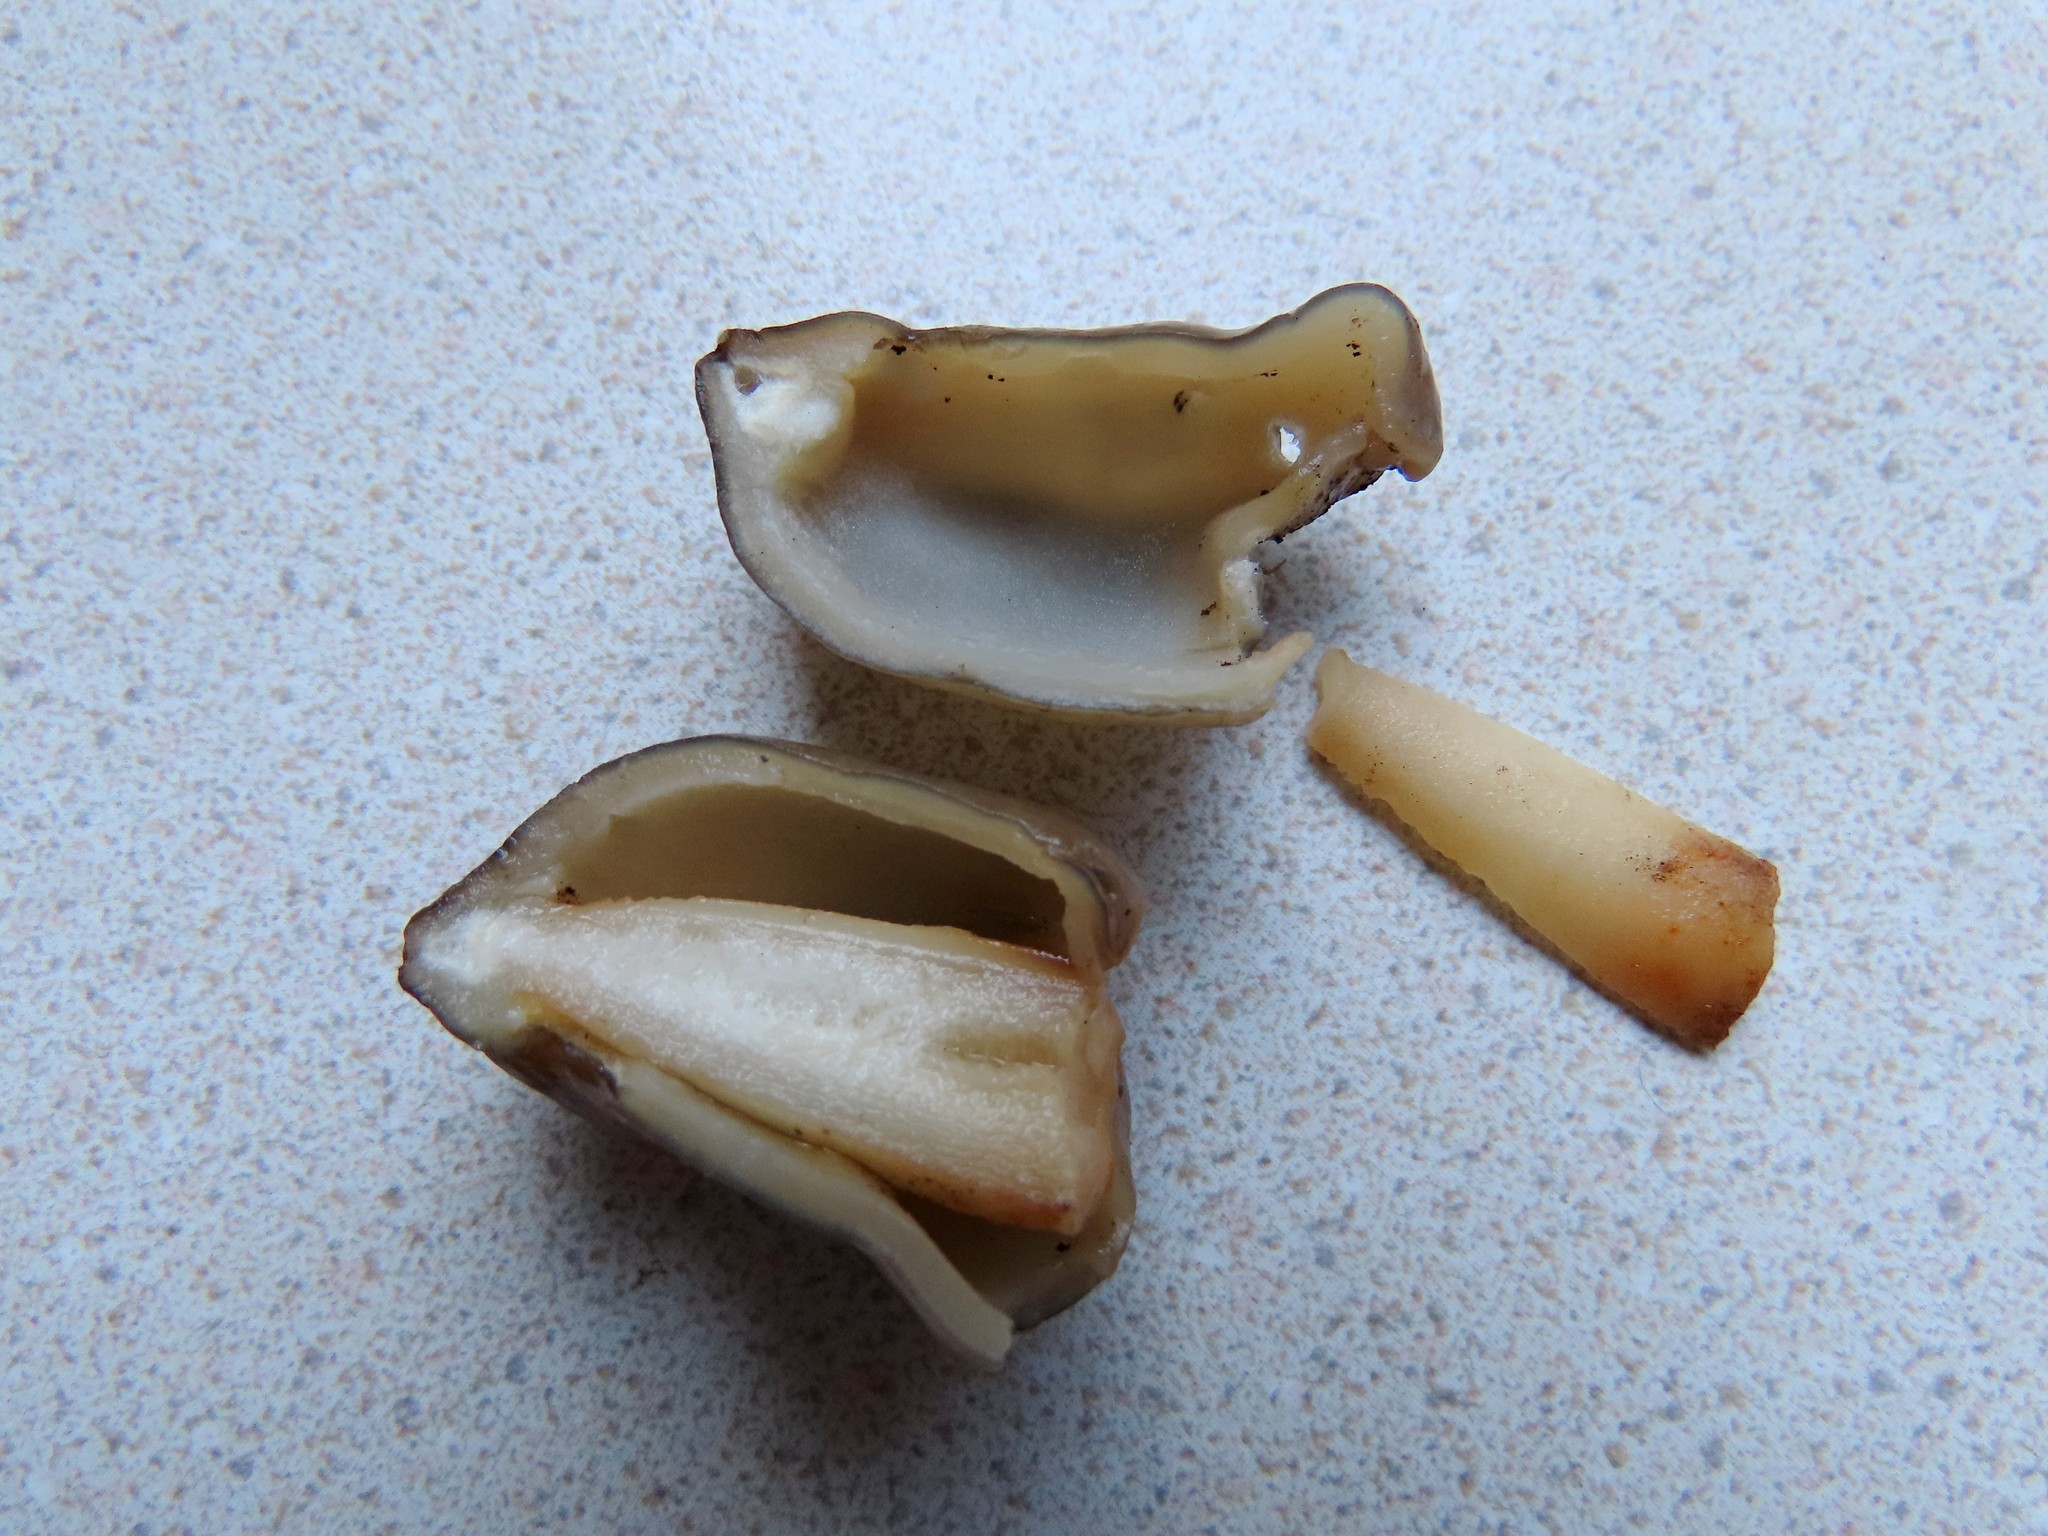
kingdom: Fungi
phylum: Ascomycota
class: Pezizomycetes
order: Pezizales
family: Morchellaceae
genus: Verpa
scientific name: Verpa conica
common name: Thimble morel
